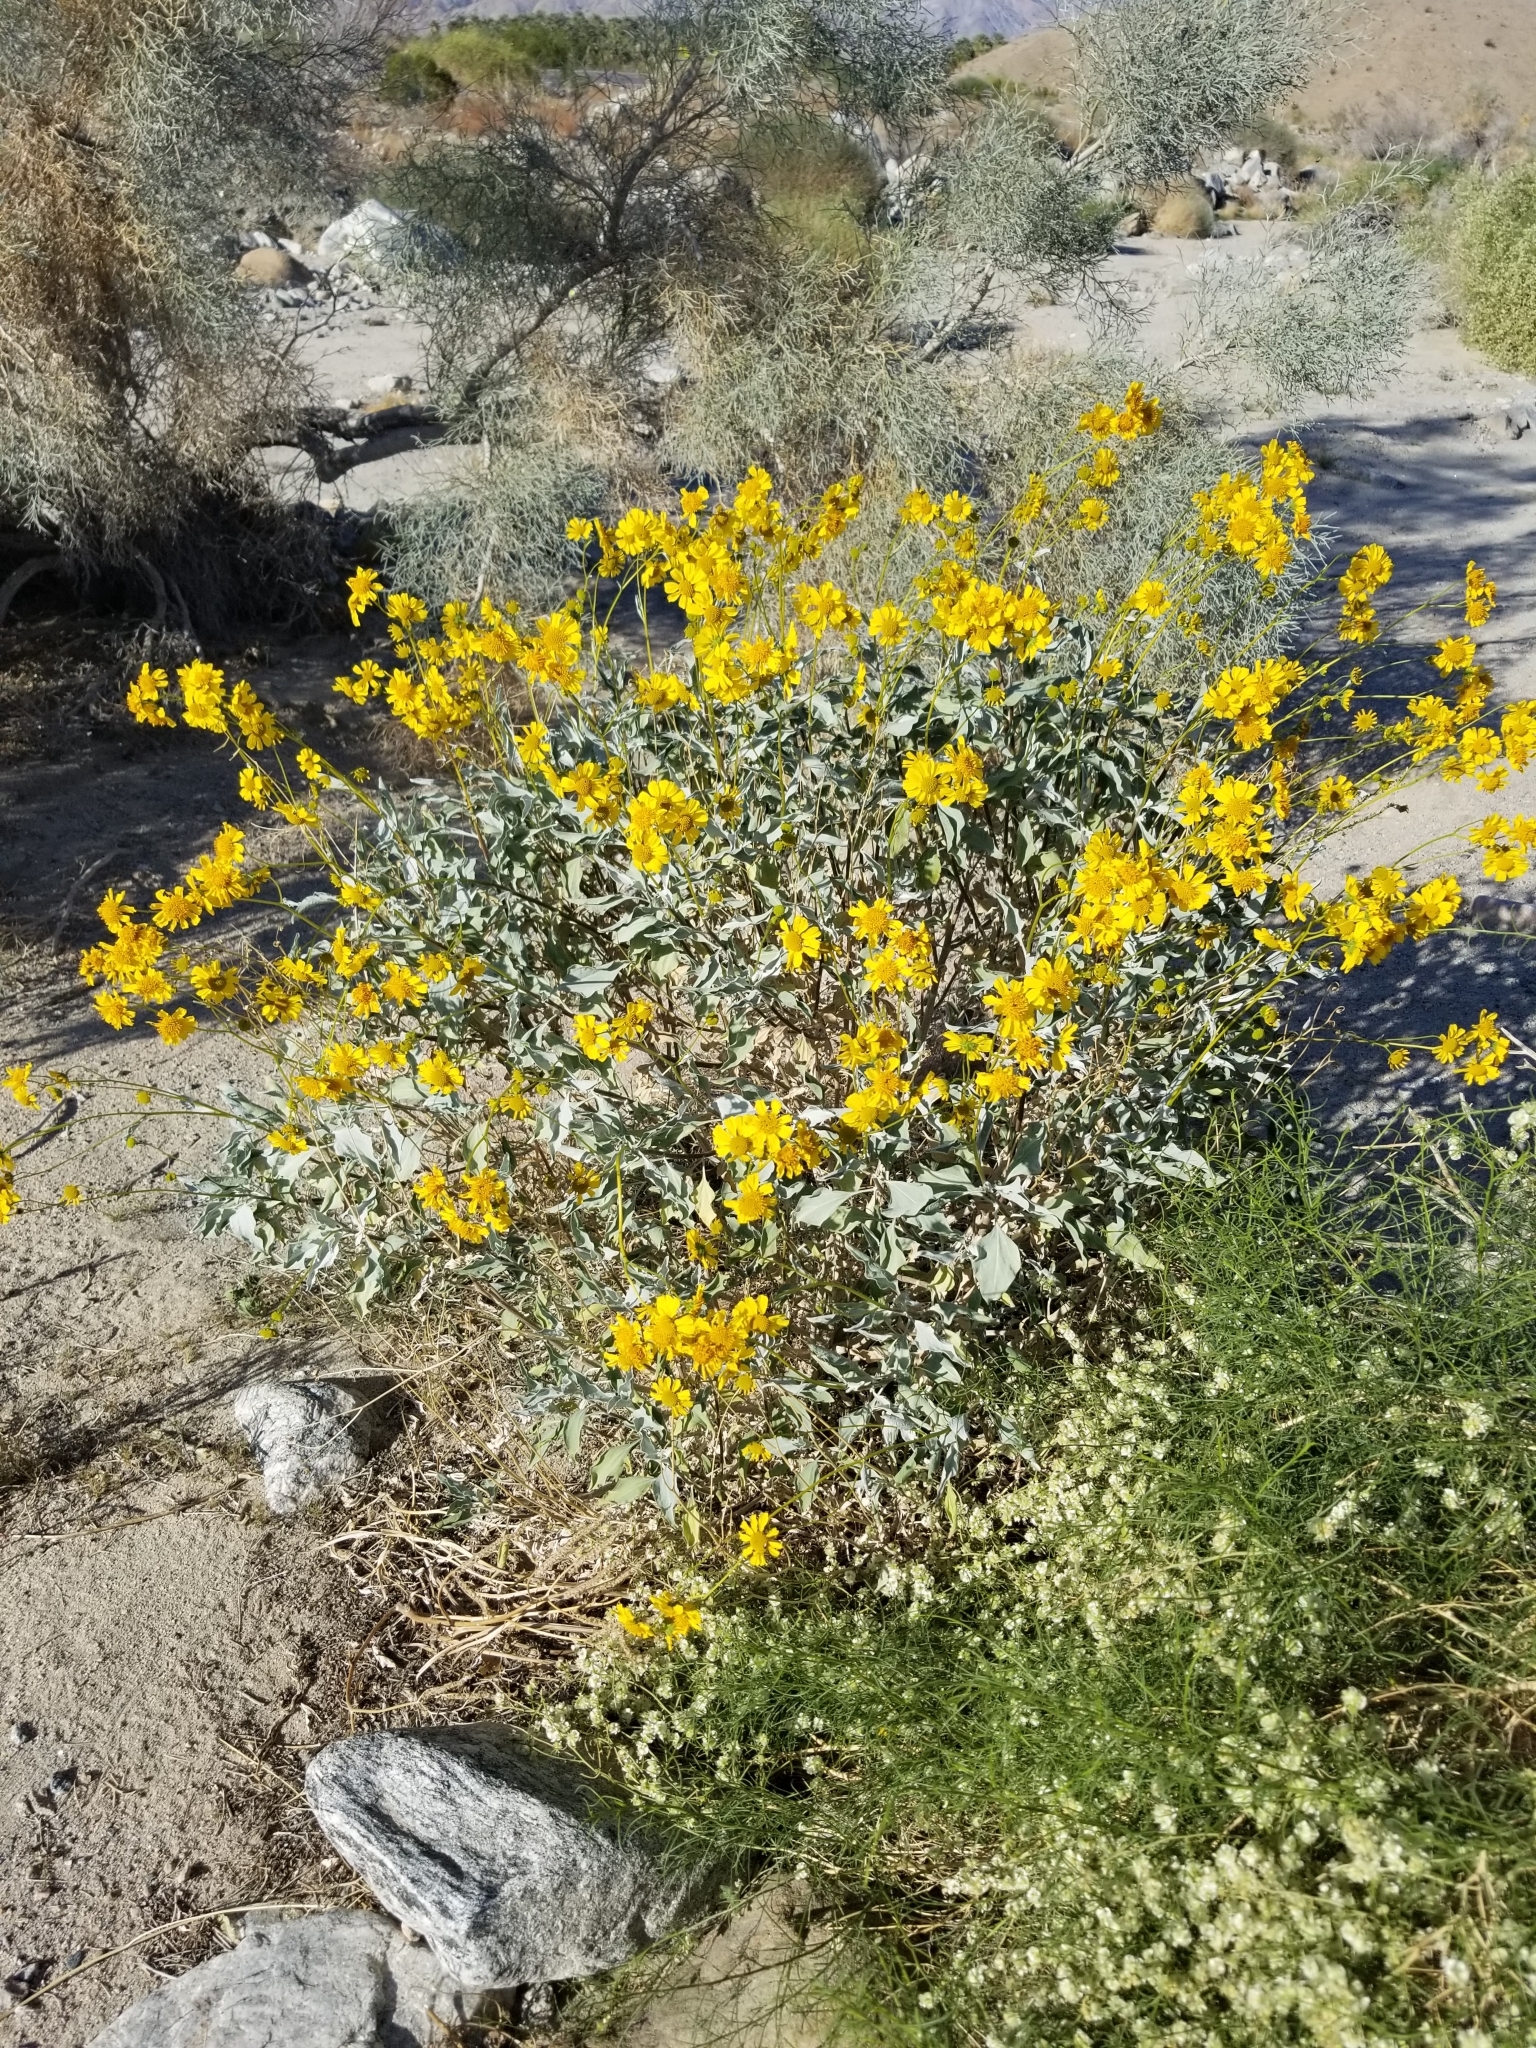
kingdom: Plantae
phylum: Tracheophyta
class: Magnoliopsida
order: Asterales
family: Asteraceae
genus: Encelia
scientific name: Encelia farinosa
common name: Brittlebush
